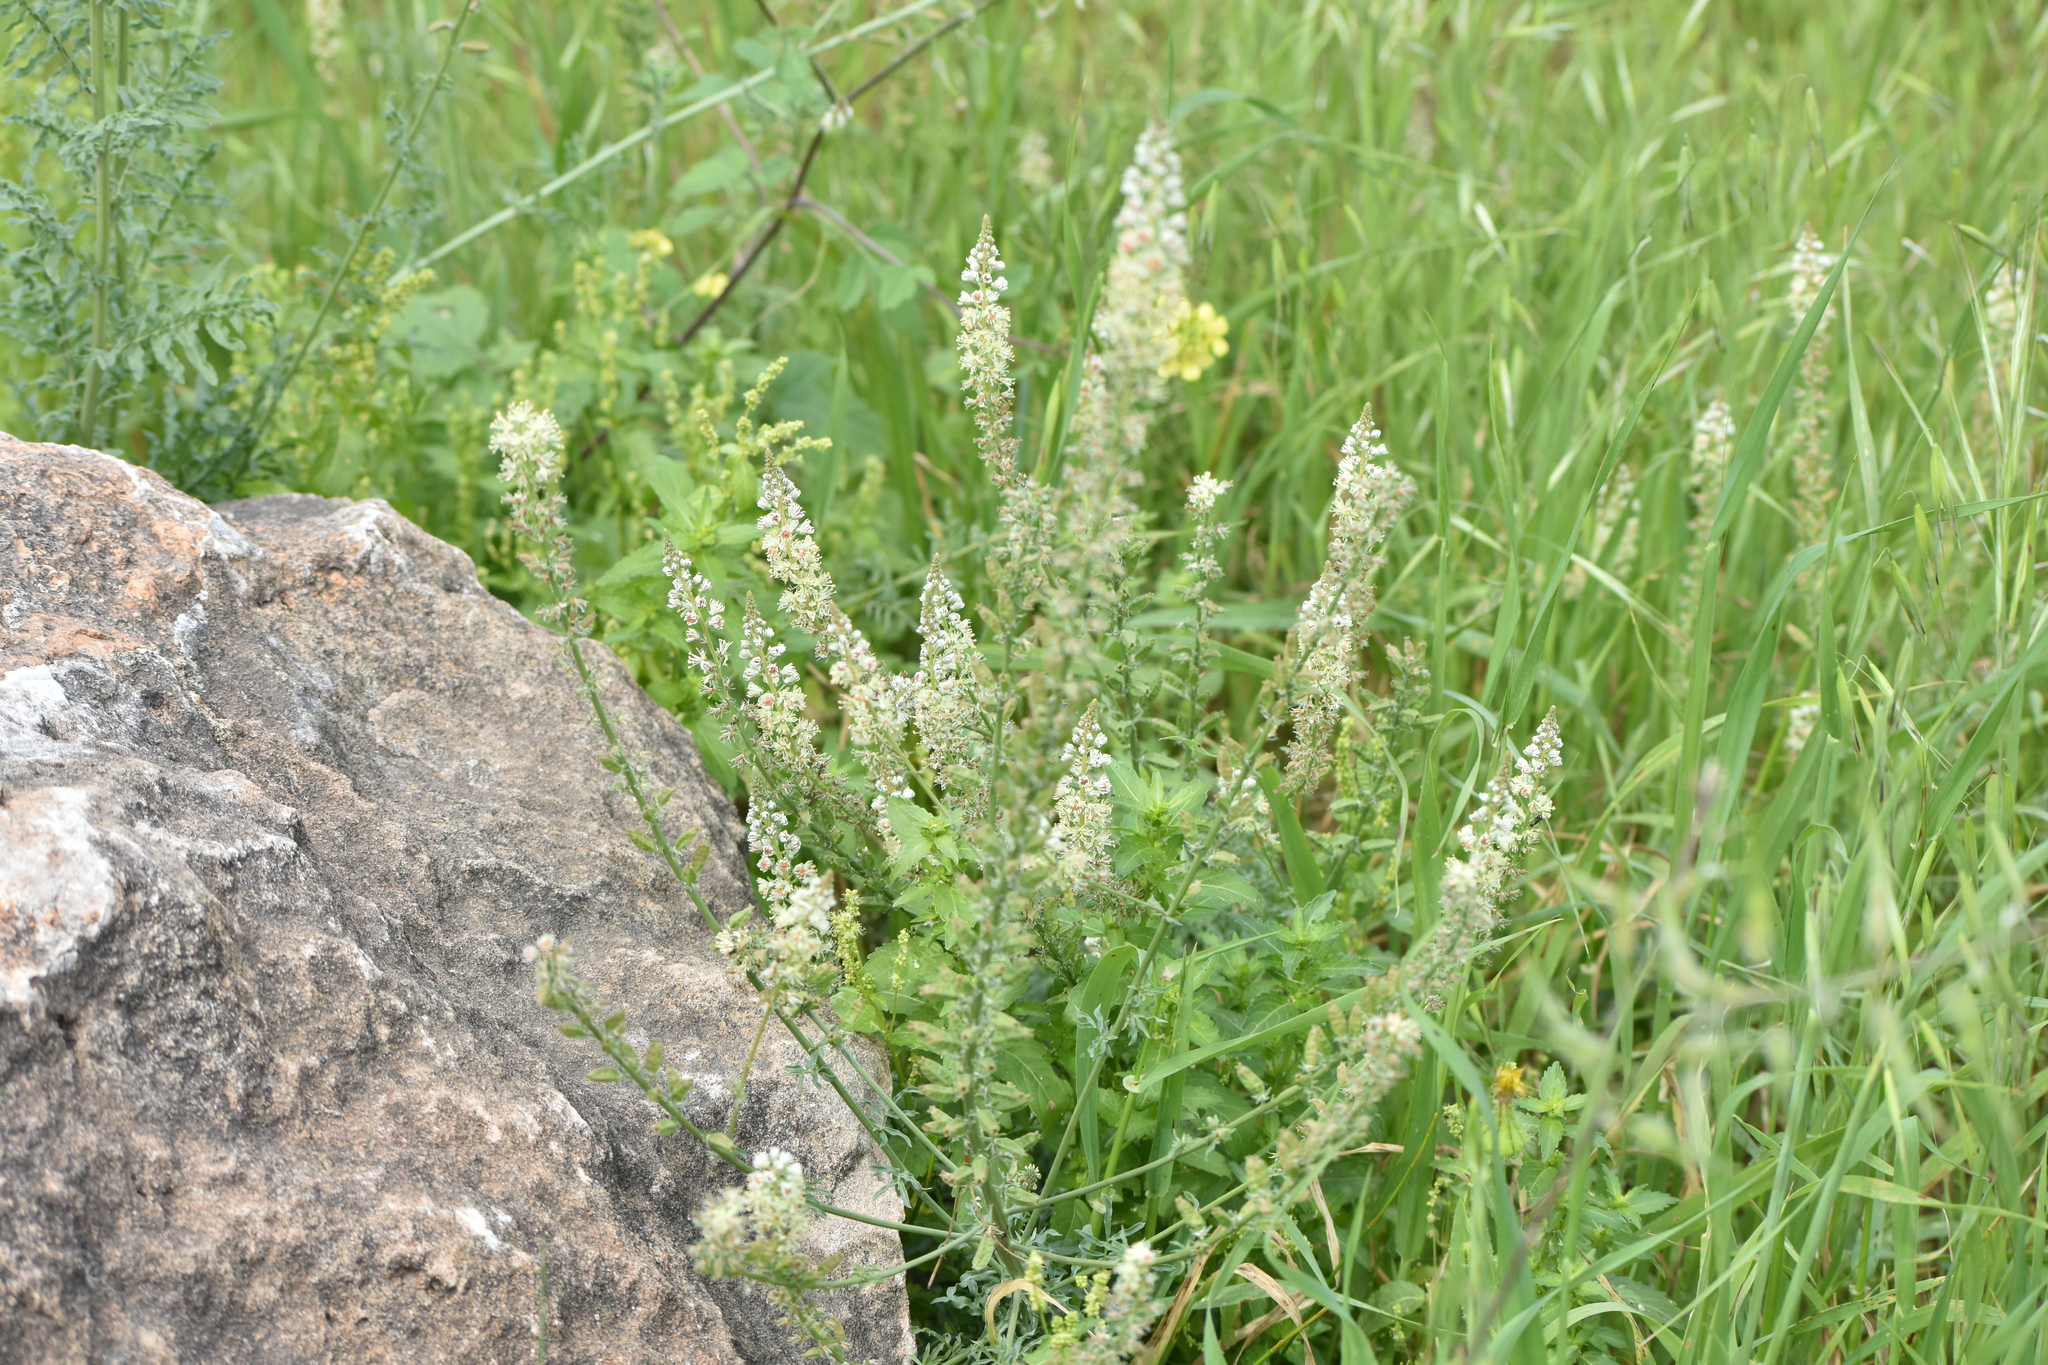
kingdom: Plantae
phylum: Tracheophyta
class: Magnoliopsida
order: Brassicales
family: Resedaceae
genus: Reseda
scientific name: Reseda alba
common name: White mignonette
